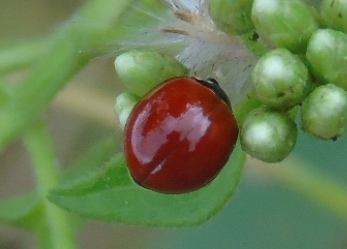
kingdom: Animalia
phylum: Arthropoda
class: Insecta
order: Coleoptera
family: Coccinellidae
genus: Cycloneda
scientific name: Cycloneda sanguinea
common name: Ladybird beetle
